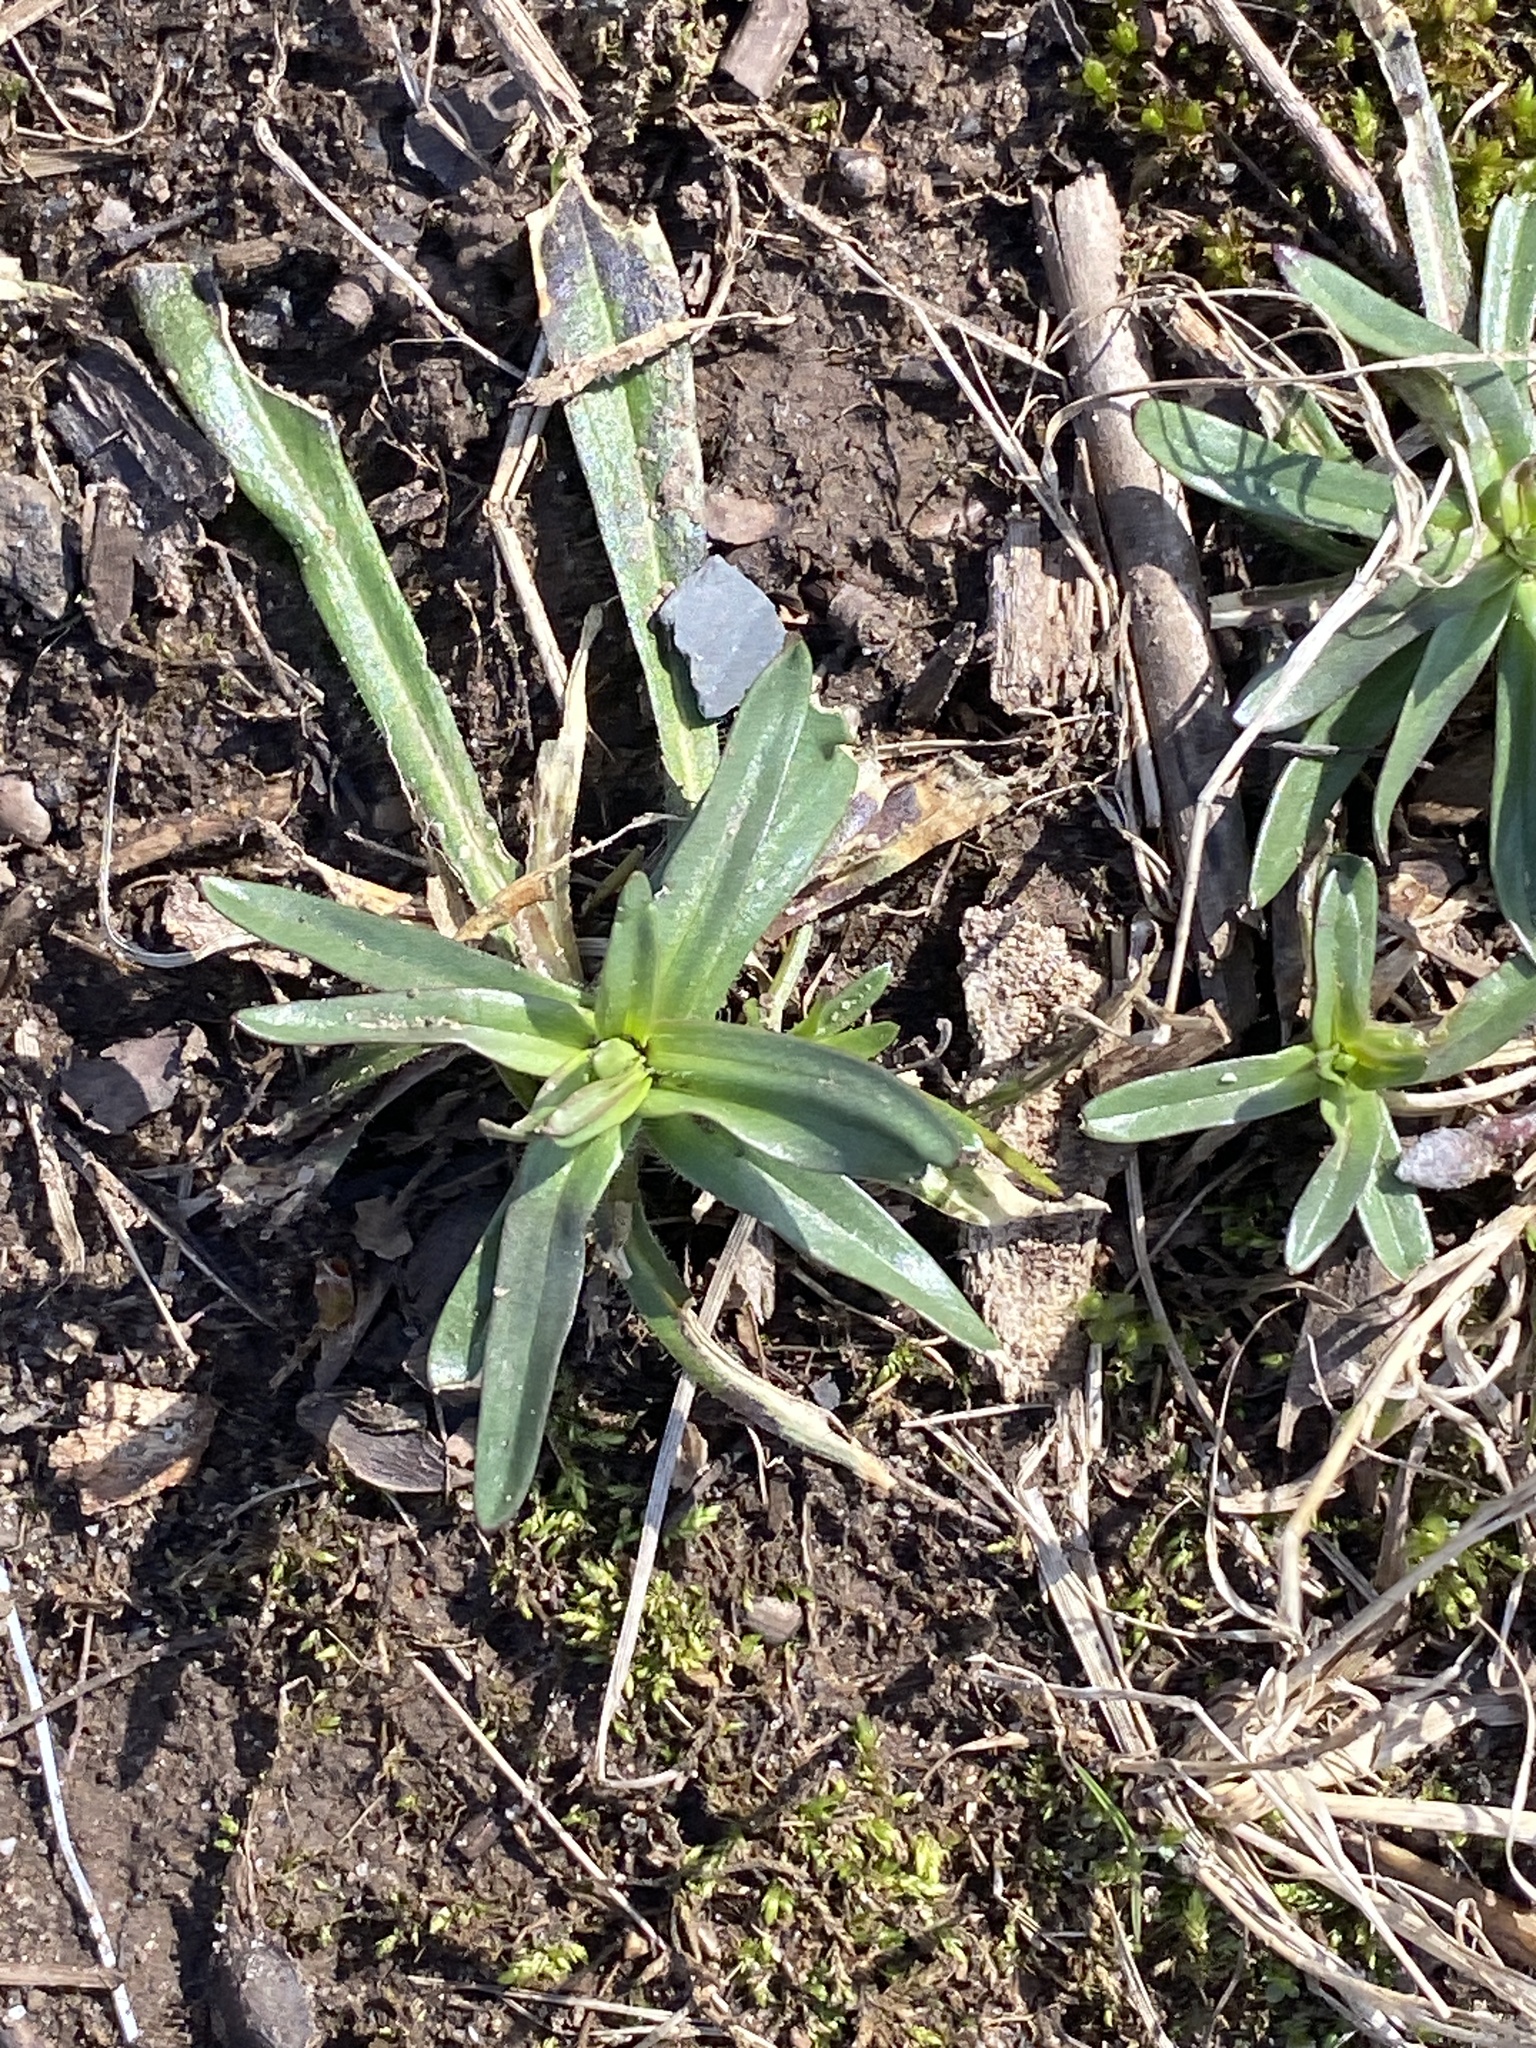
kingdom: Plantae
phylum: Tracheophyta
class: Magnoliopsida
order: Caryophyllales
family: Caryophyllaceae
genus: Dianthus
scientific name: Dianthus armeria
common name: Deptford pink
